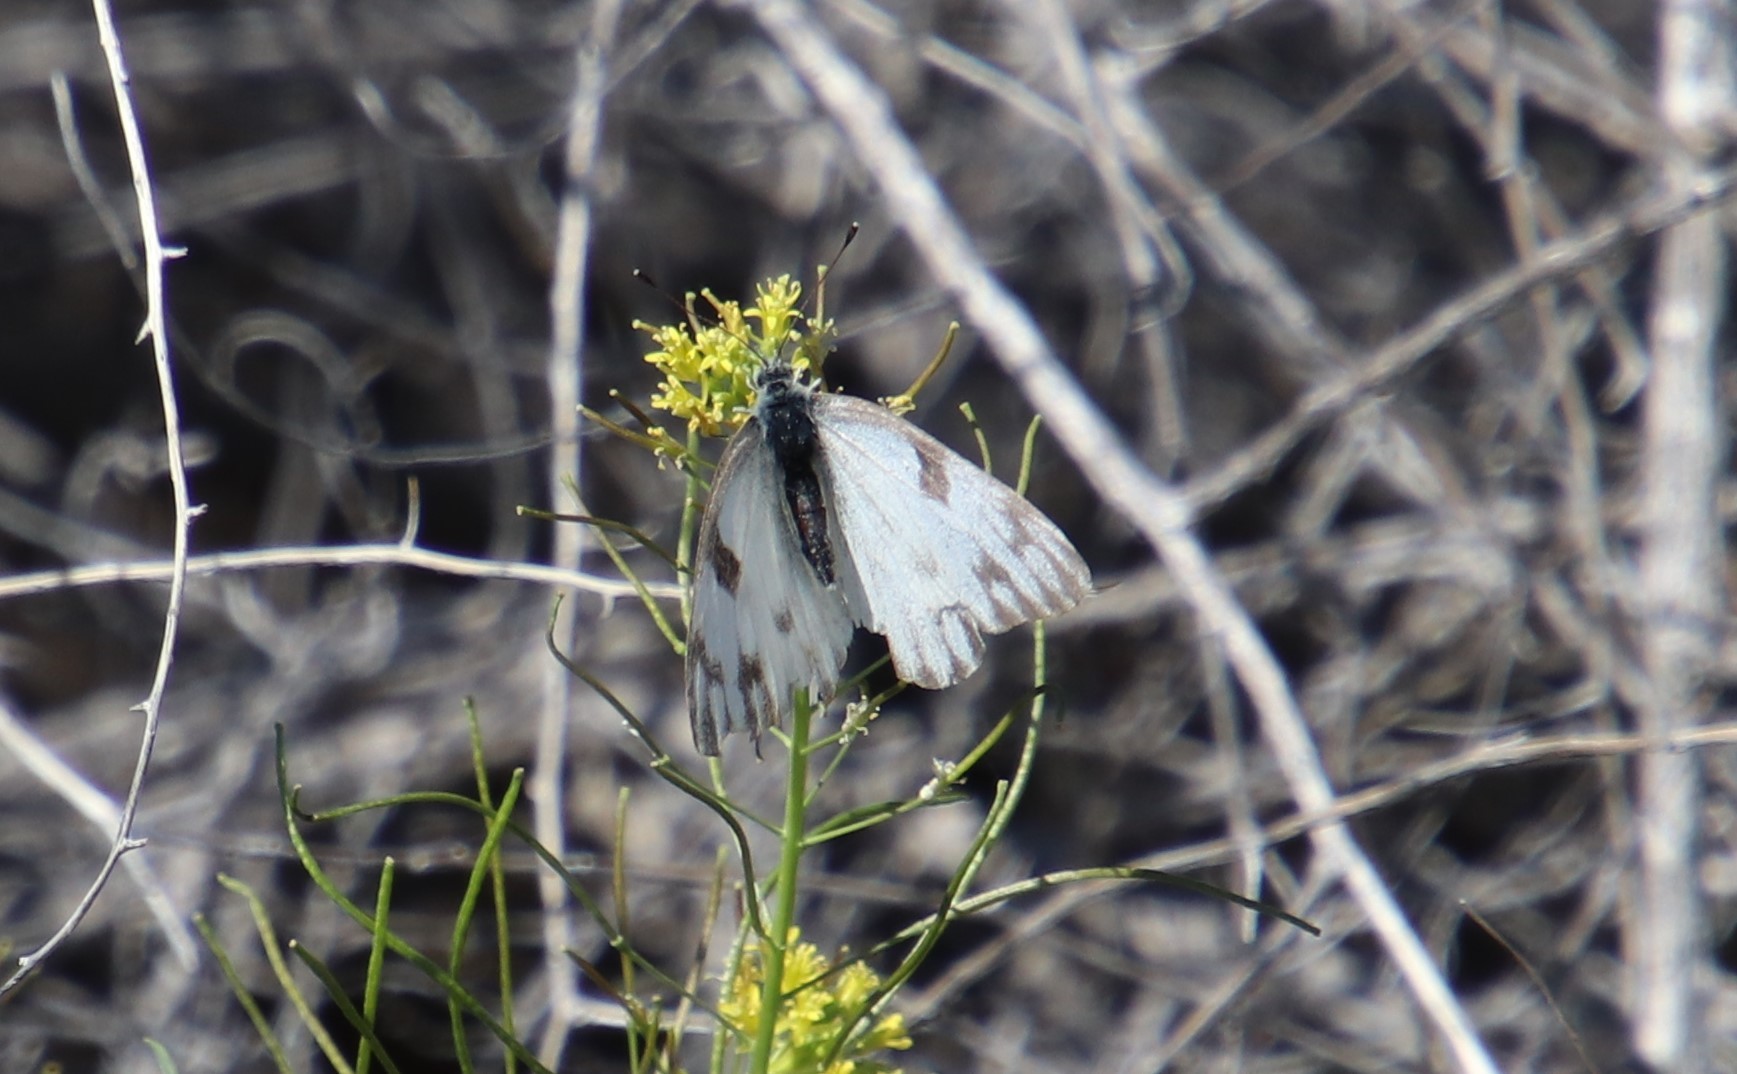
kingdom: Animalia
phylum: Arthropoda
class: Insecta
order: Lepidoptera
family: Pieridae
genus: Pontia
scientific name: Pontia protodice
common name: Checkered white
